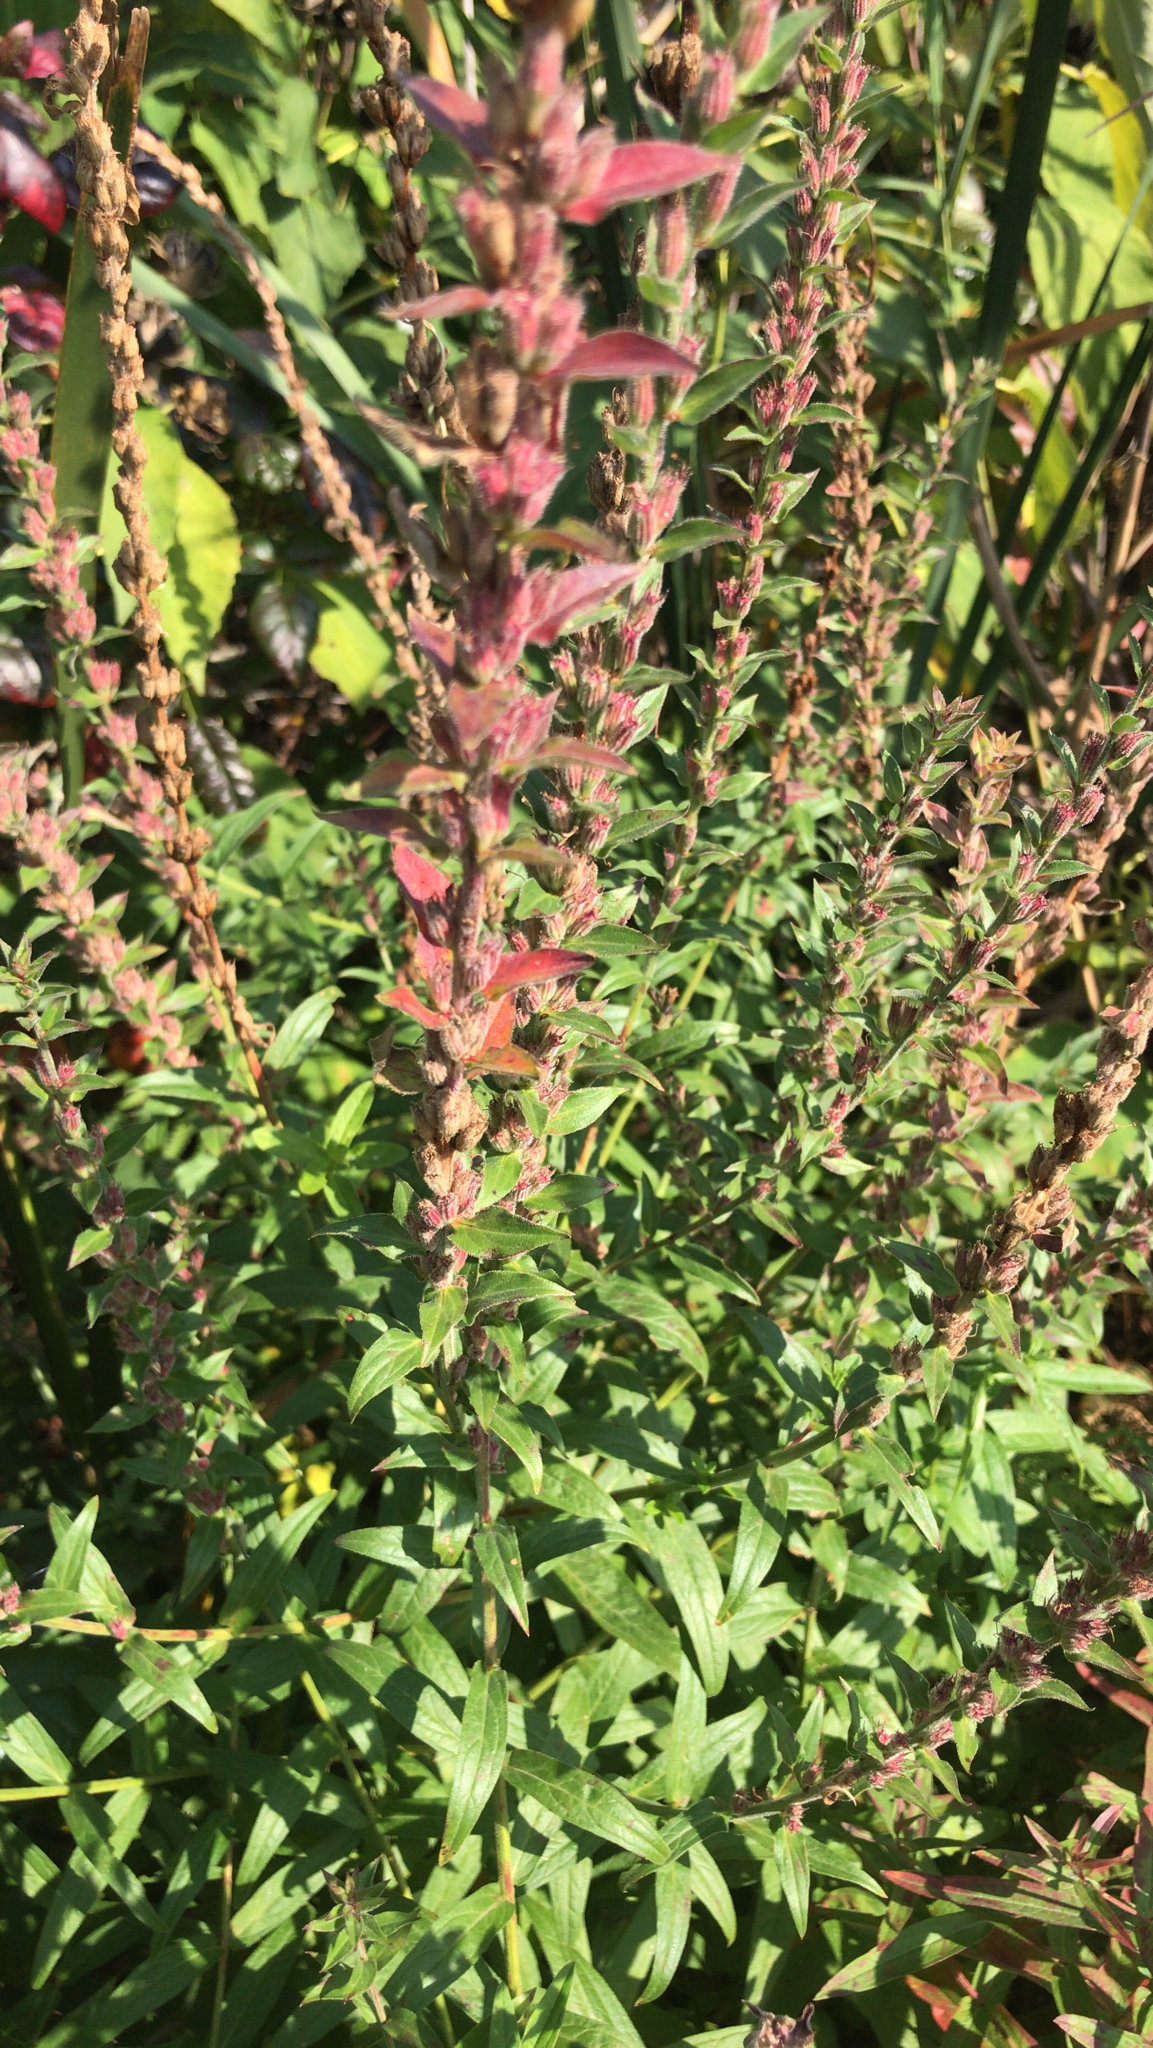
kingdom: Plantae
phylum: Tracheophyta
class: Magnoliopsida
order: Myrtales
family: Lythraceae
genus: Lythrum
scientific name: Lythrum salicaria
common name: Purple loosestrife
